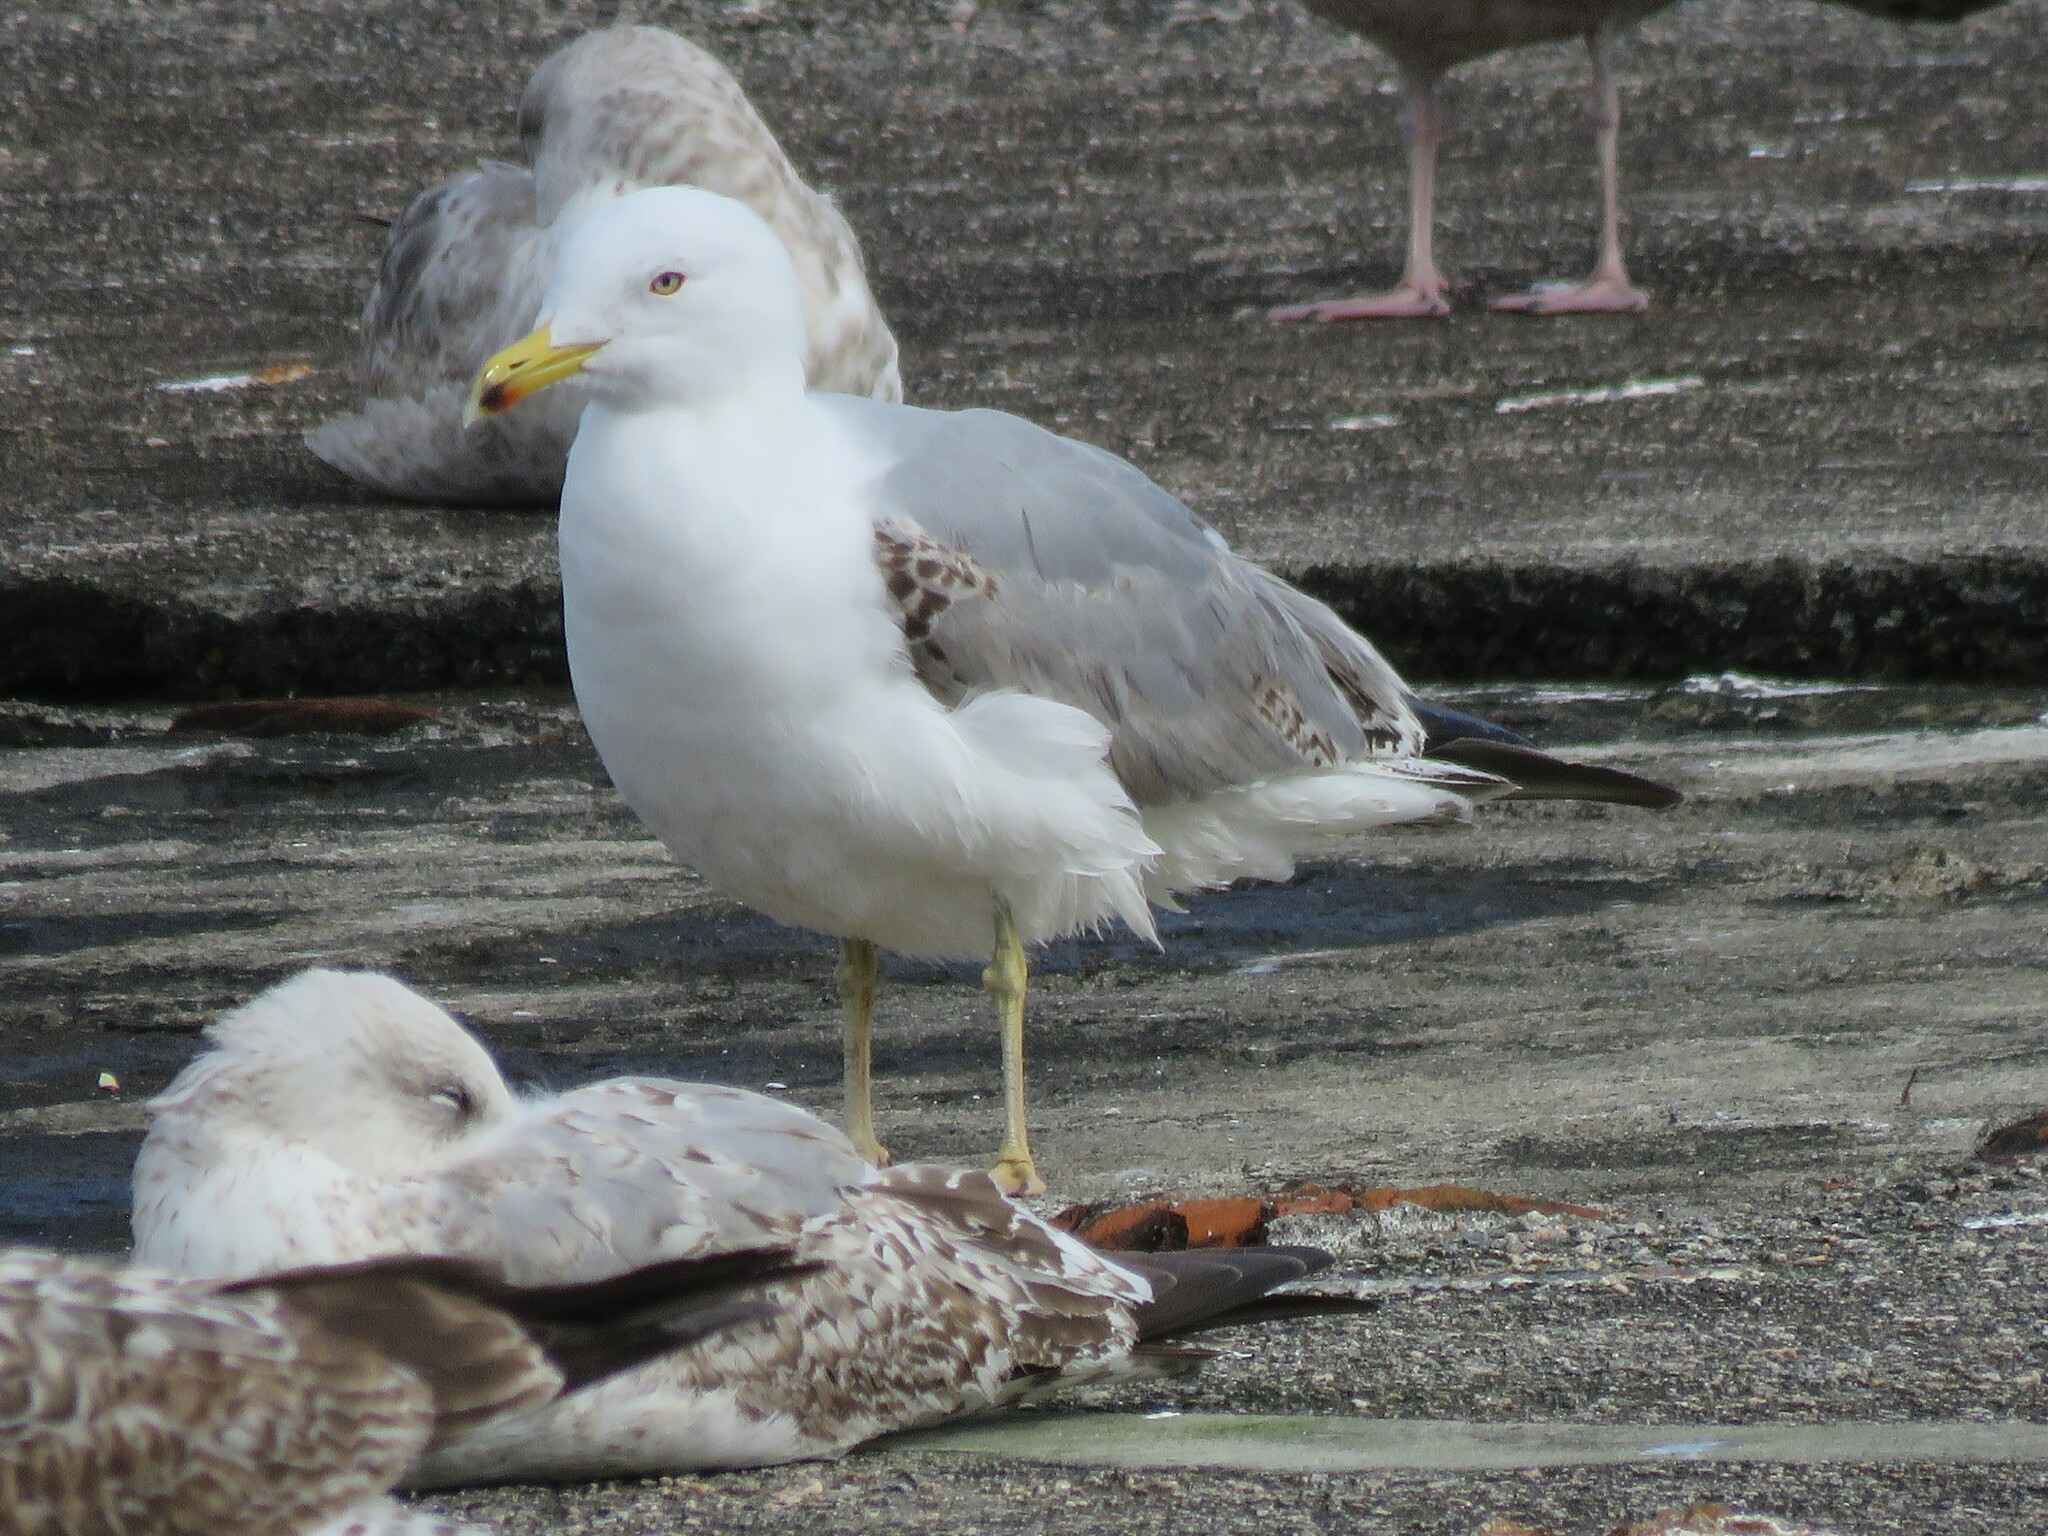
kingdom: Animalia
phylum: Chordata
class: Aves
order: Charadriiformes
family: Laridae
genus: Larus
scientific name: Larus michahellis
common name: Yellow-legged gull
